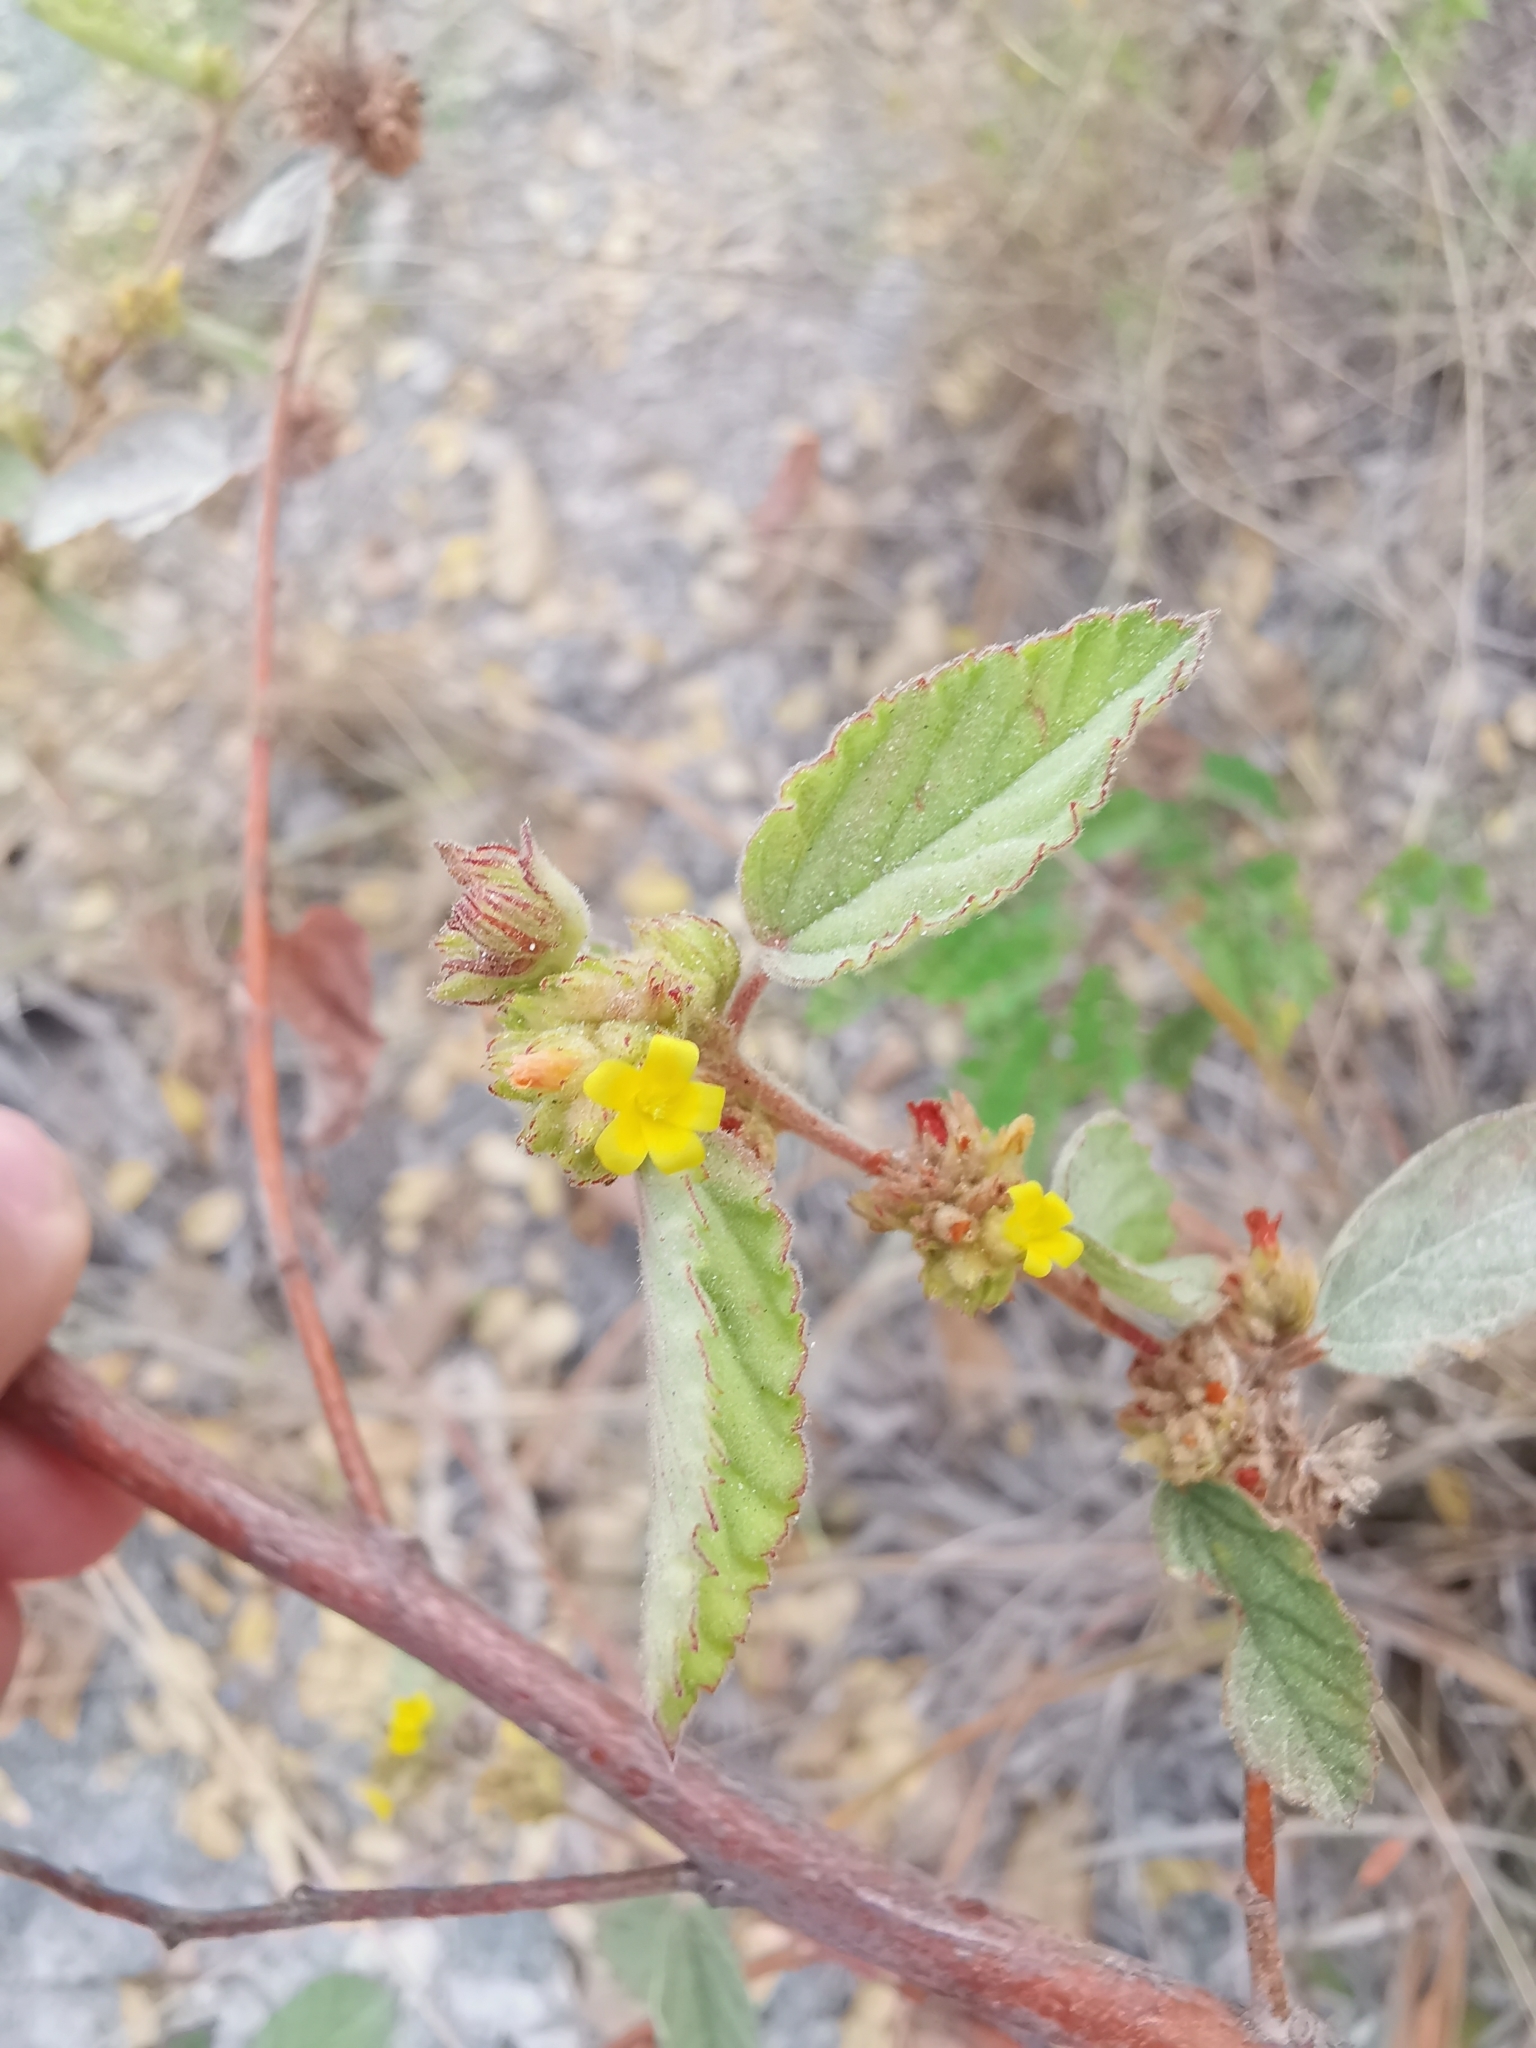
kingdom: Plantae
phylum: Tracheophyta
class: Magnoliopsida
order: Malvales
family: Malvaceae
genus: Waltheria
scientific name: Waltheria indica
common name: Leather-coat
